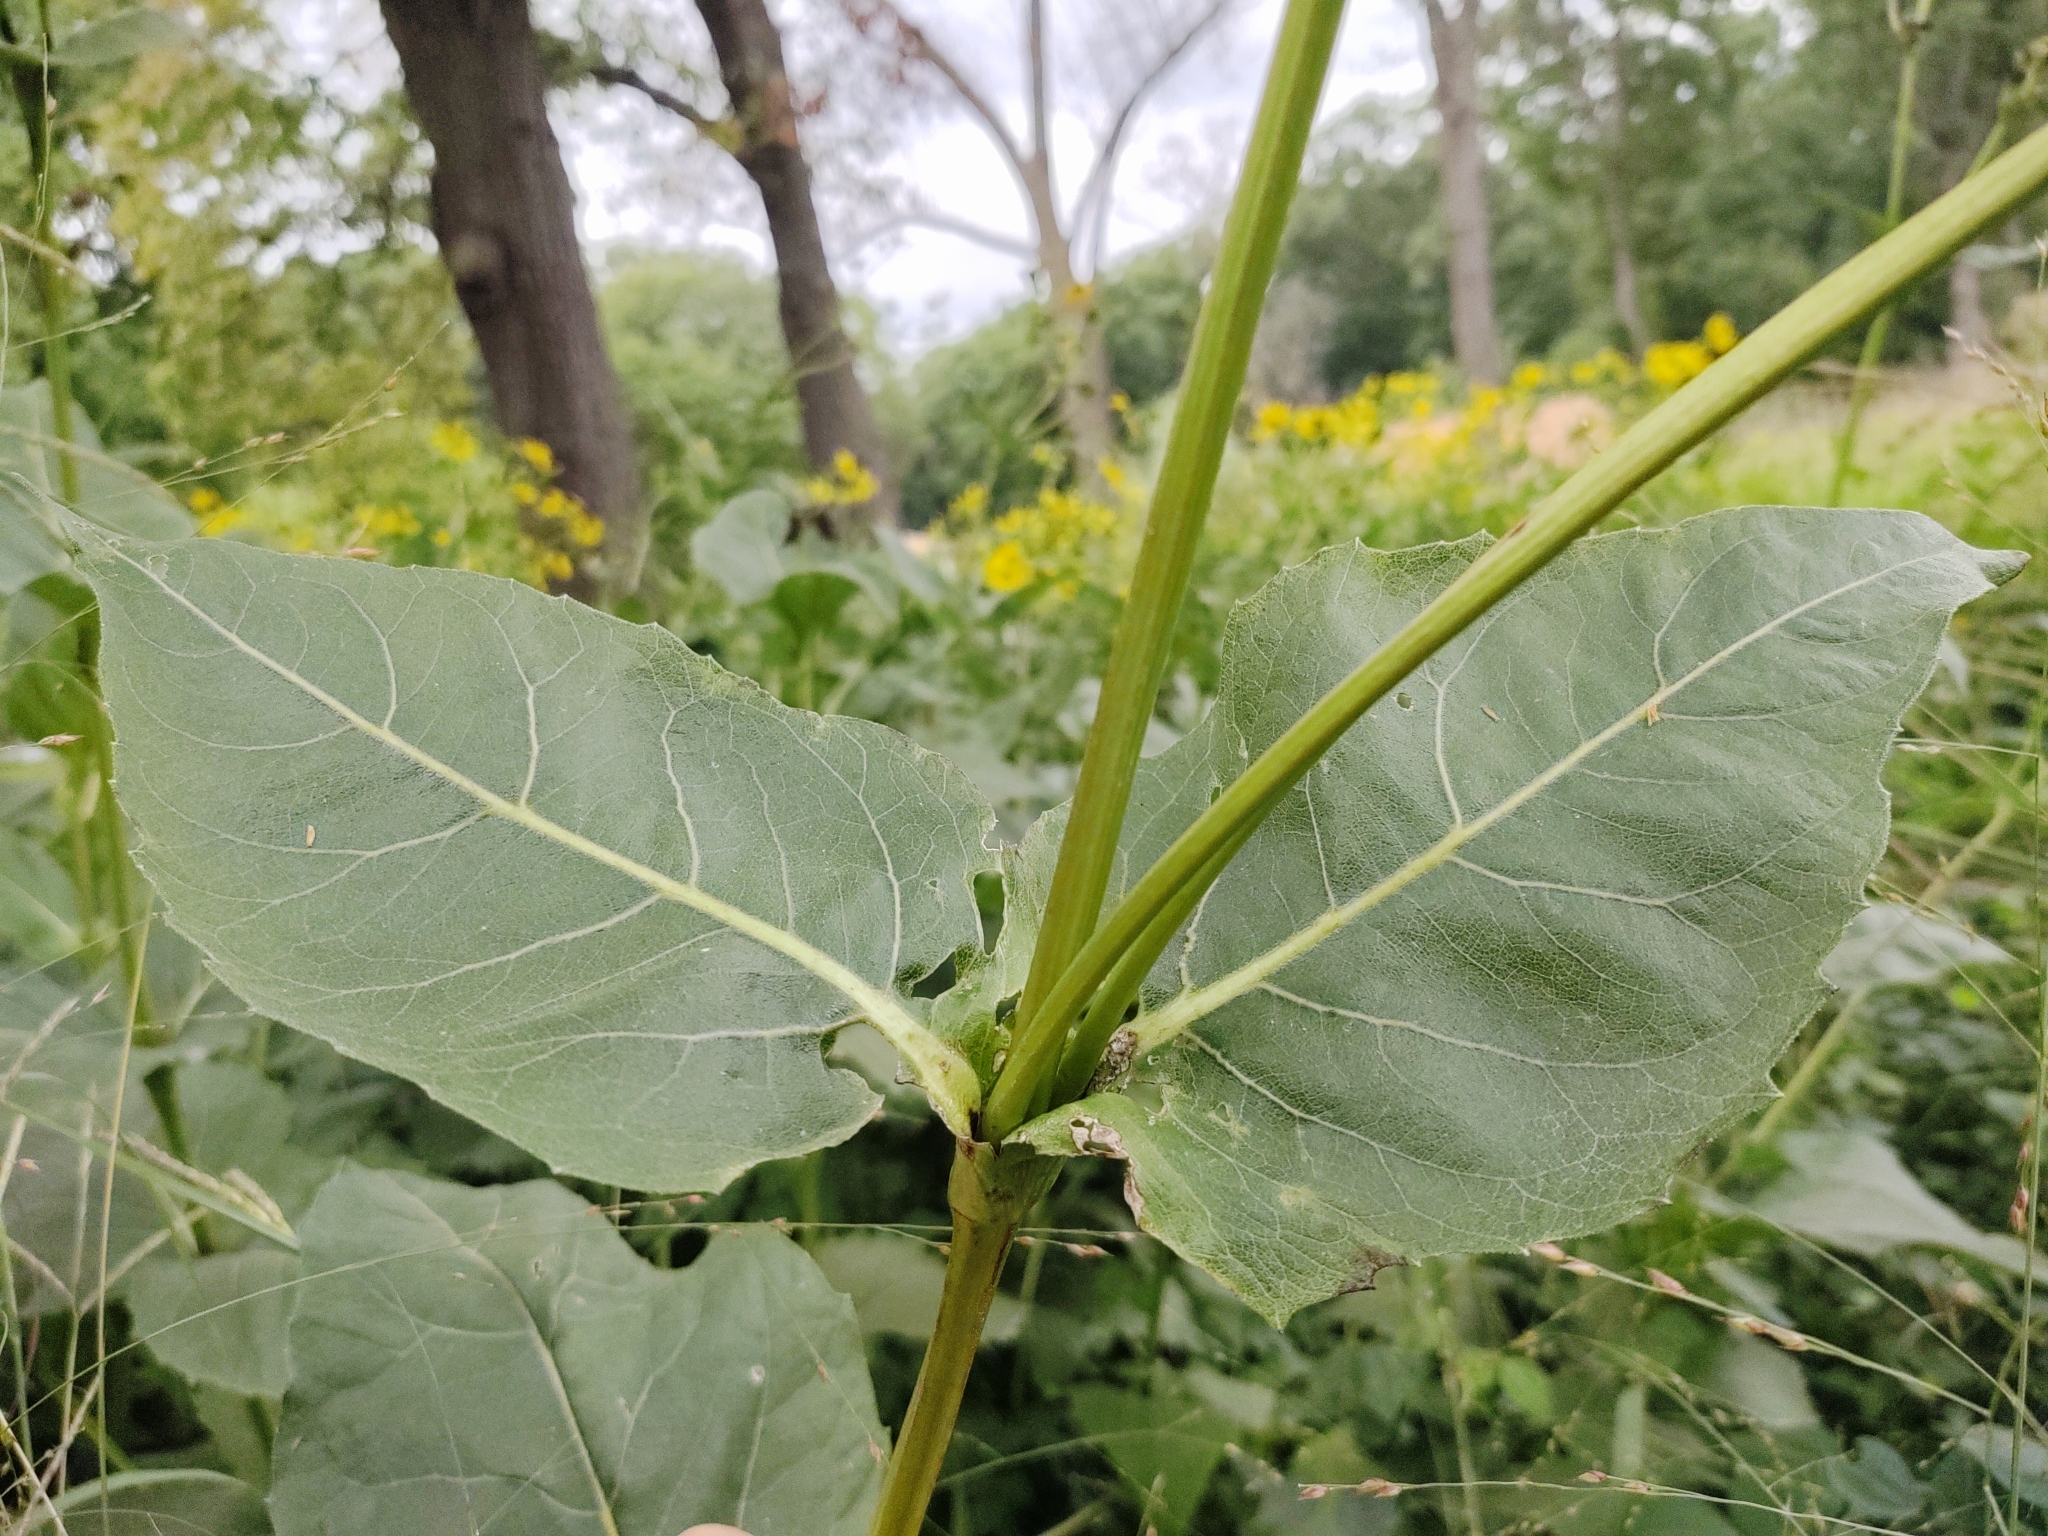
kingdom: Plantae
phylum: Tracheophyta
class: Magnoliopsida
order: Asterales
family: Asteraceae
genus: Silphium
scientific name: Silphium perfoliatum
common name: Cup-plant
